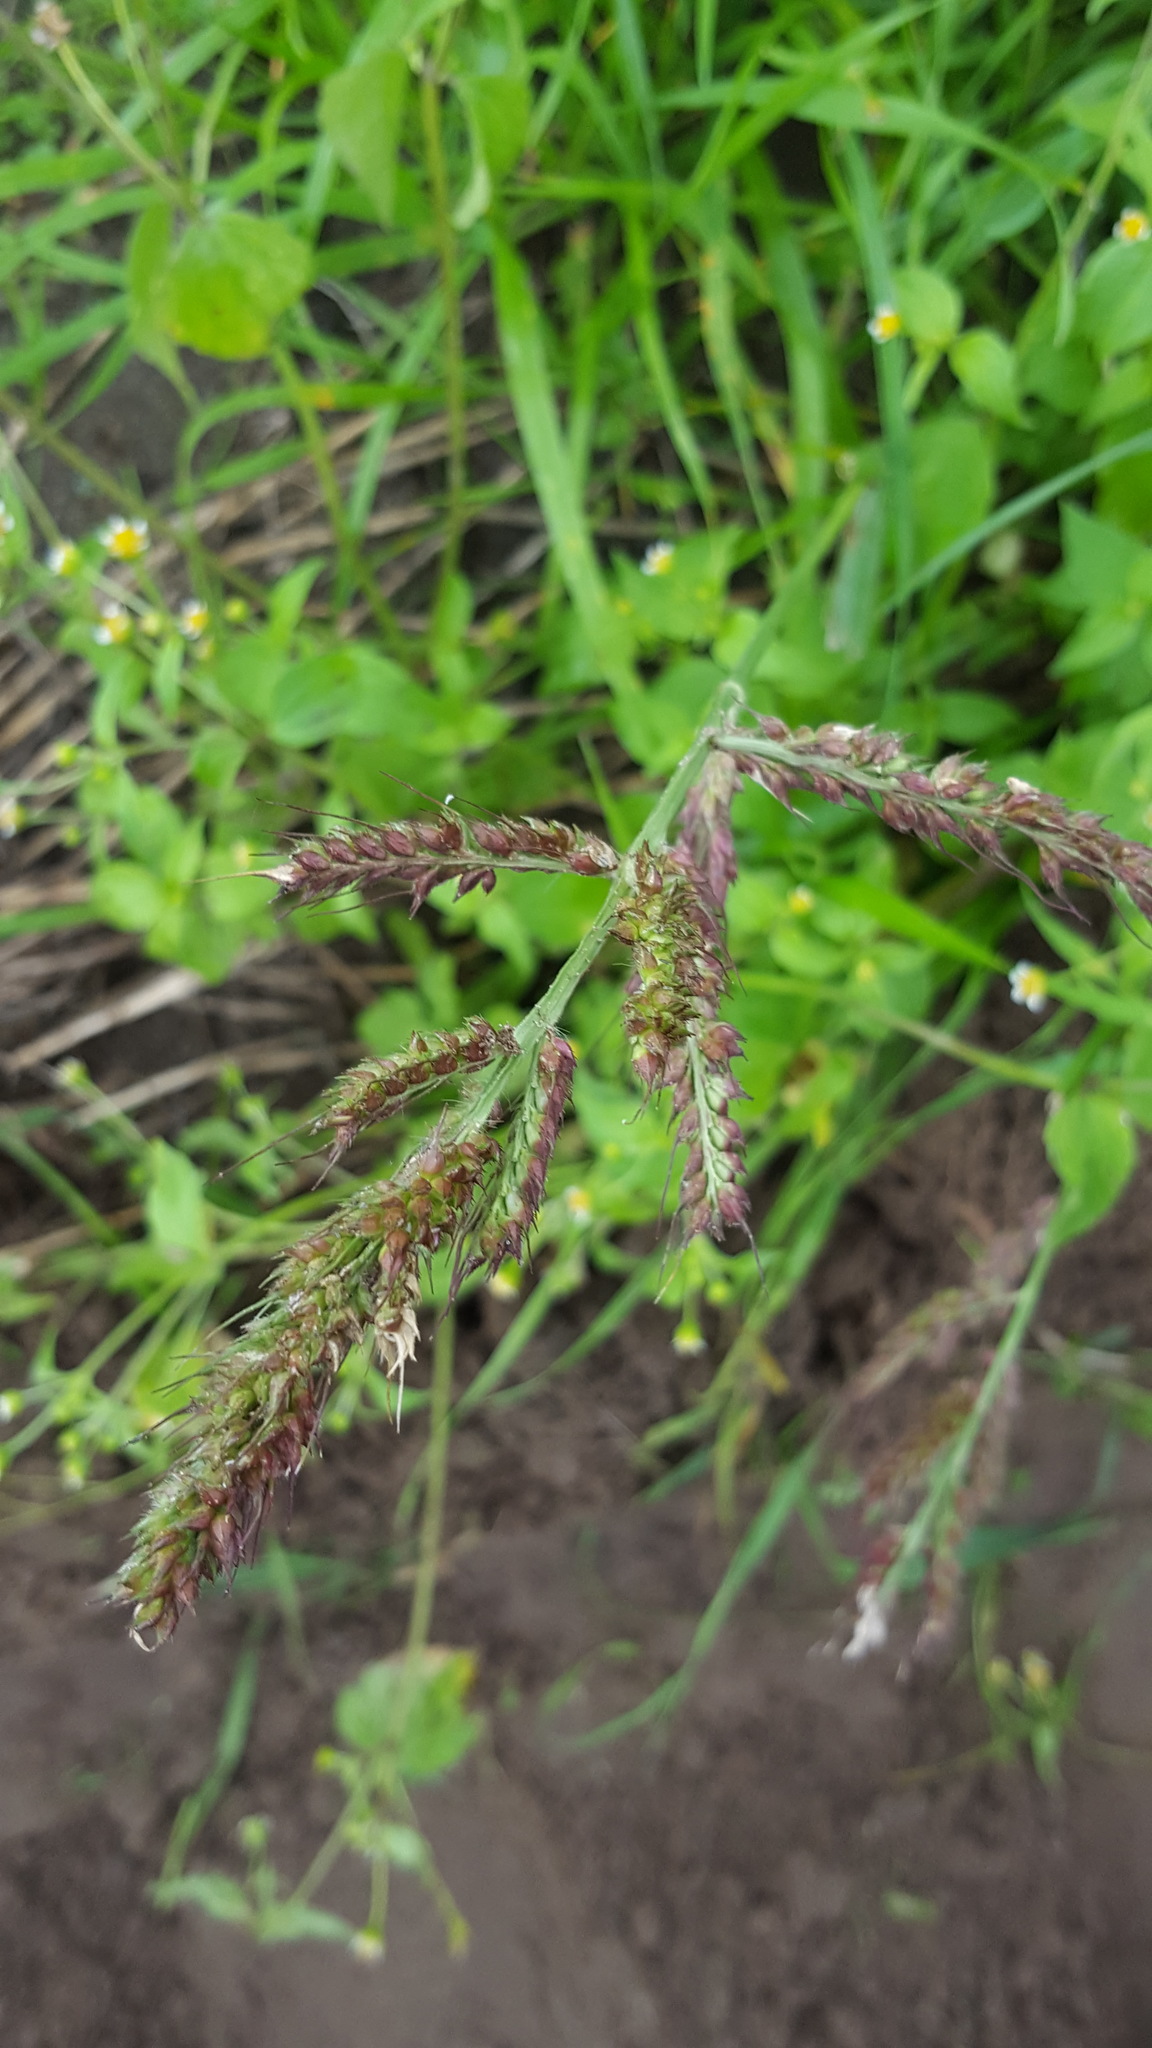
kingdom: Plantae
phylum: Tracheophyta
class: Liliopsida
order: Poales
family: Poaceae
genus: Echinochloa
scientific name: Echinochloa crus-galli
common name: Cockspur
